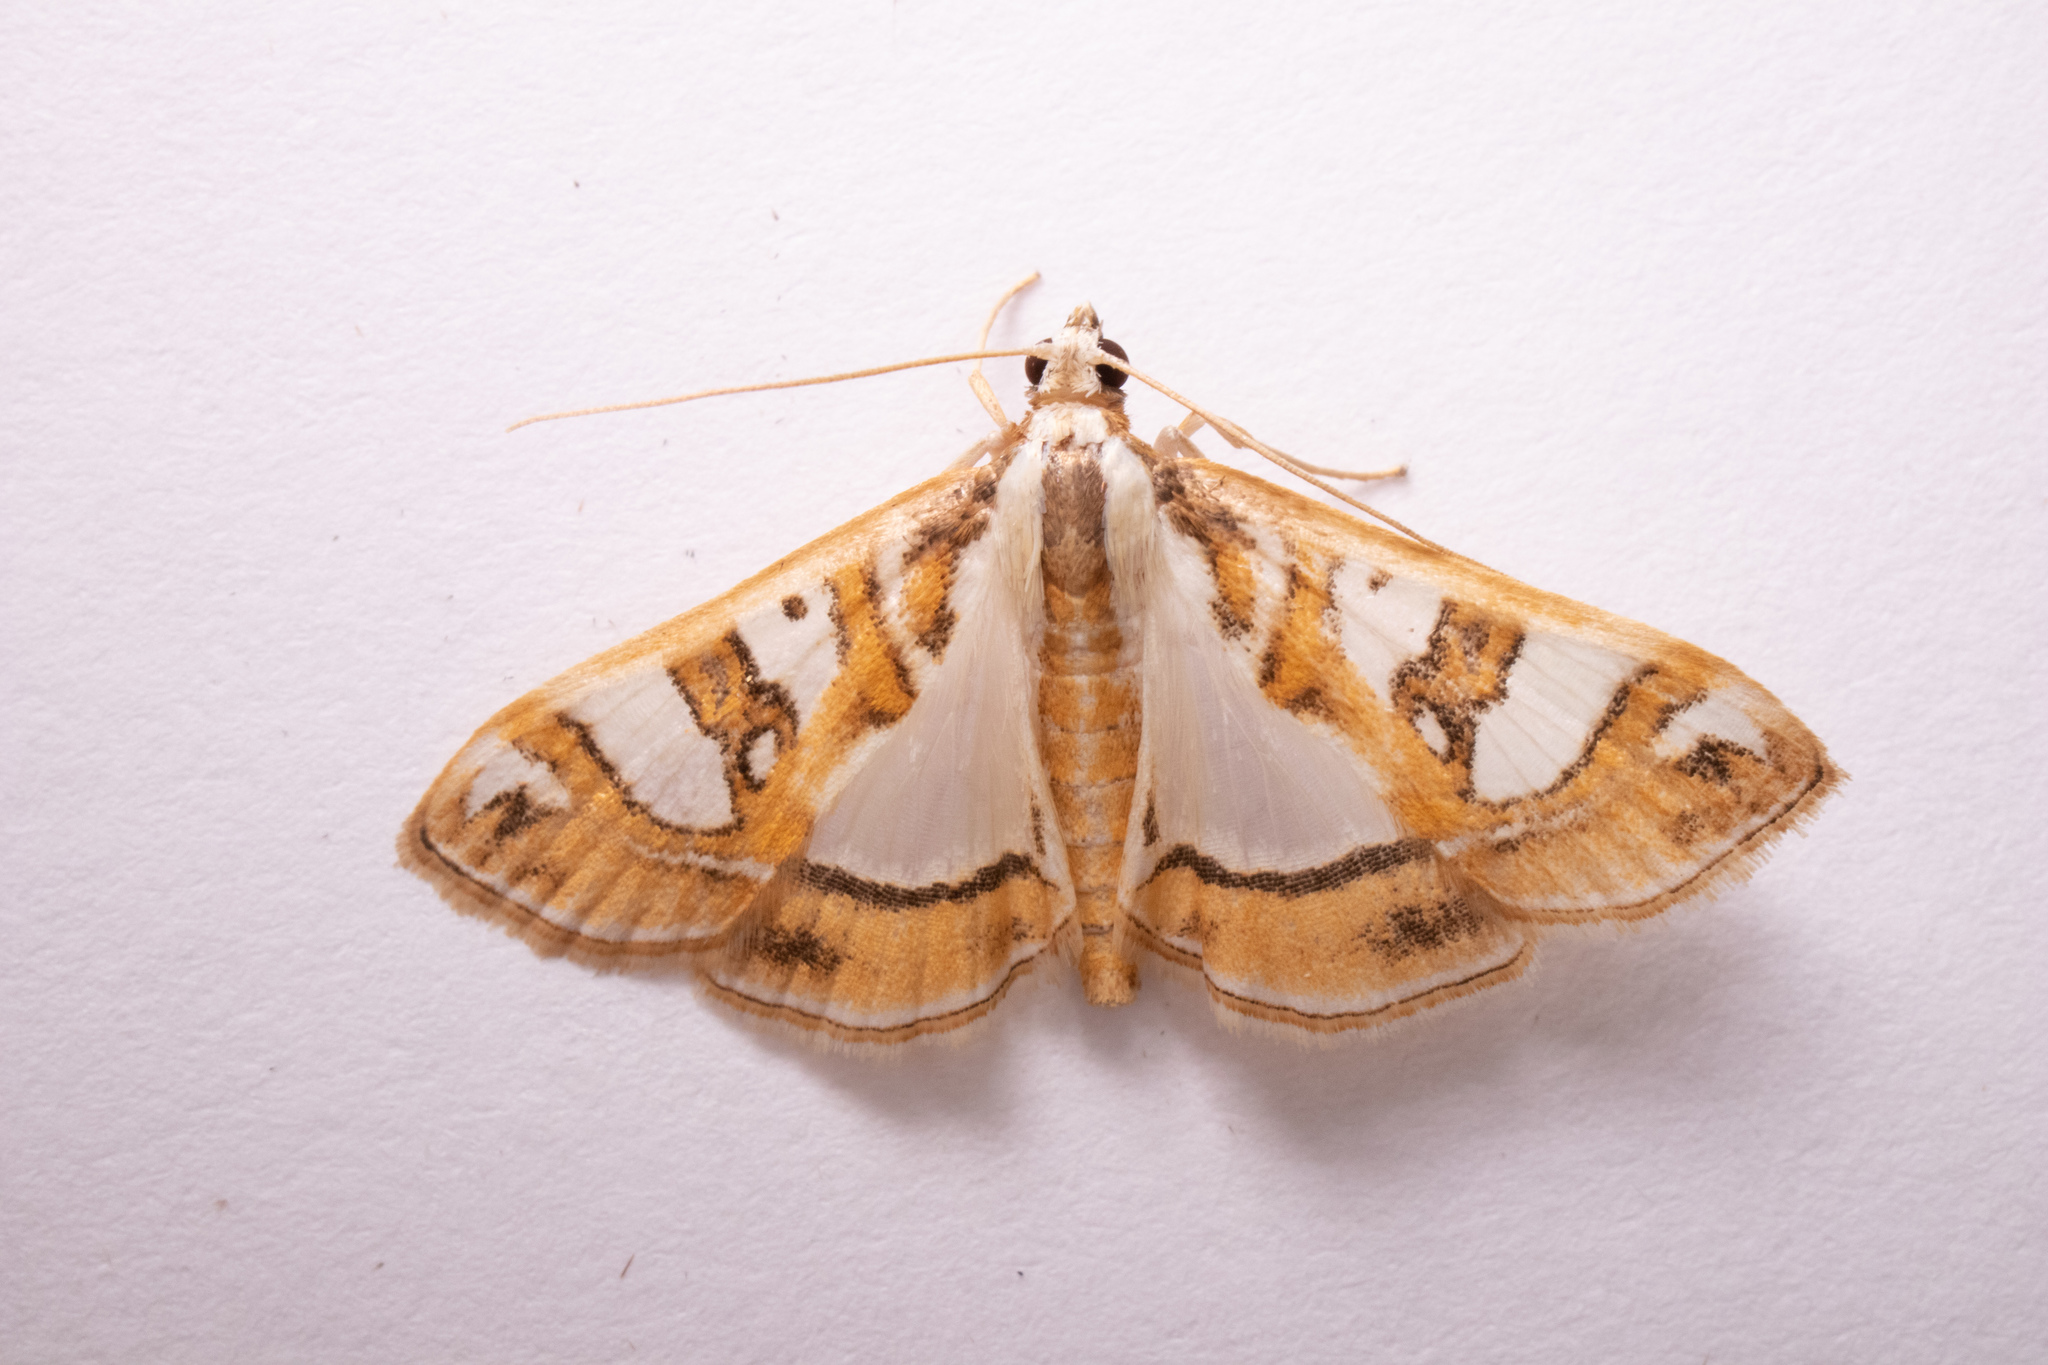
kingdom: Animalia
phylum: Arthropoda
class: Insecta
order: Lepidoptera
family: Crambidae
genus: Glyphodes
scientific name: Glyphodes pyloalis
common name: Lesser mulberry snout moth
